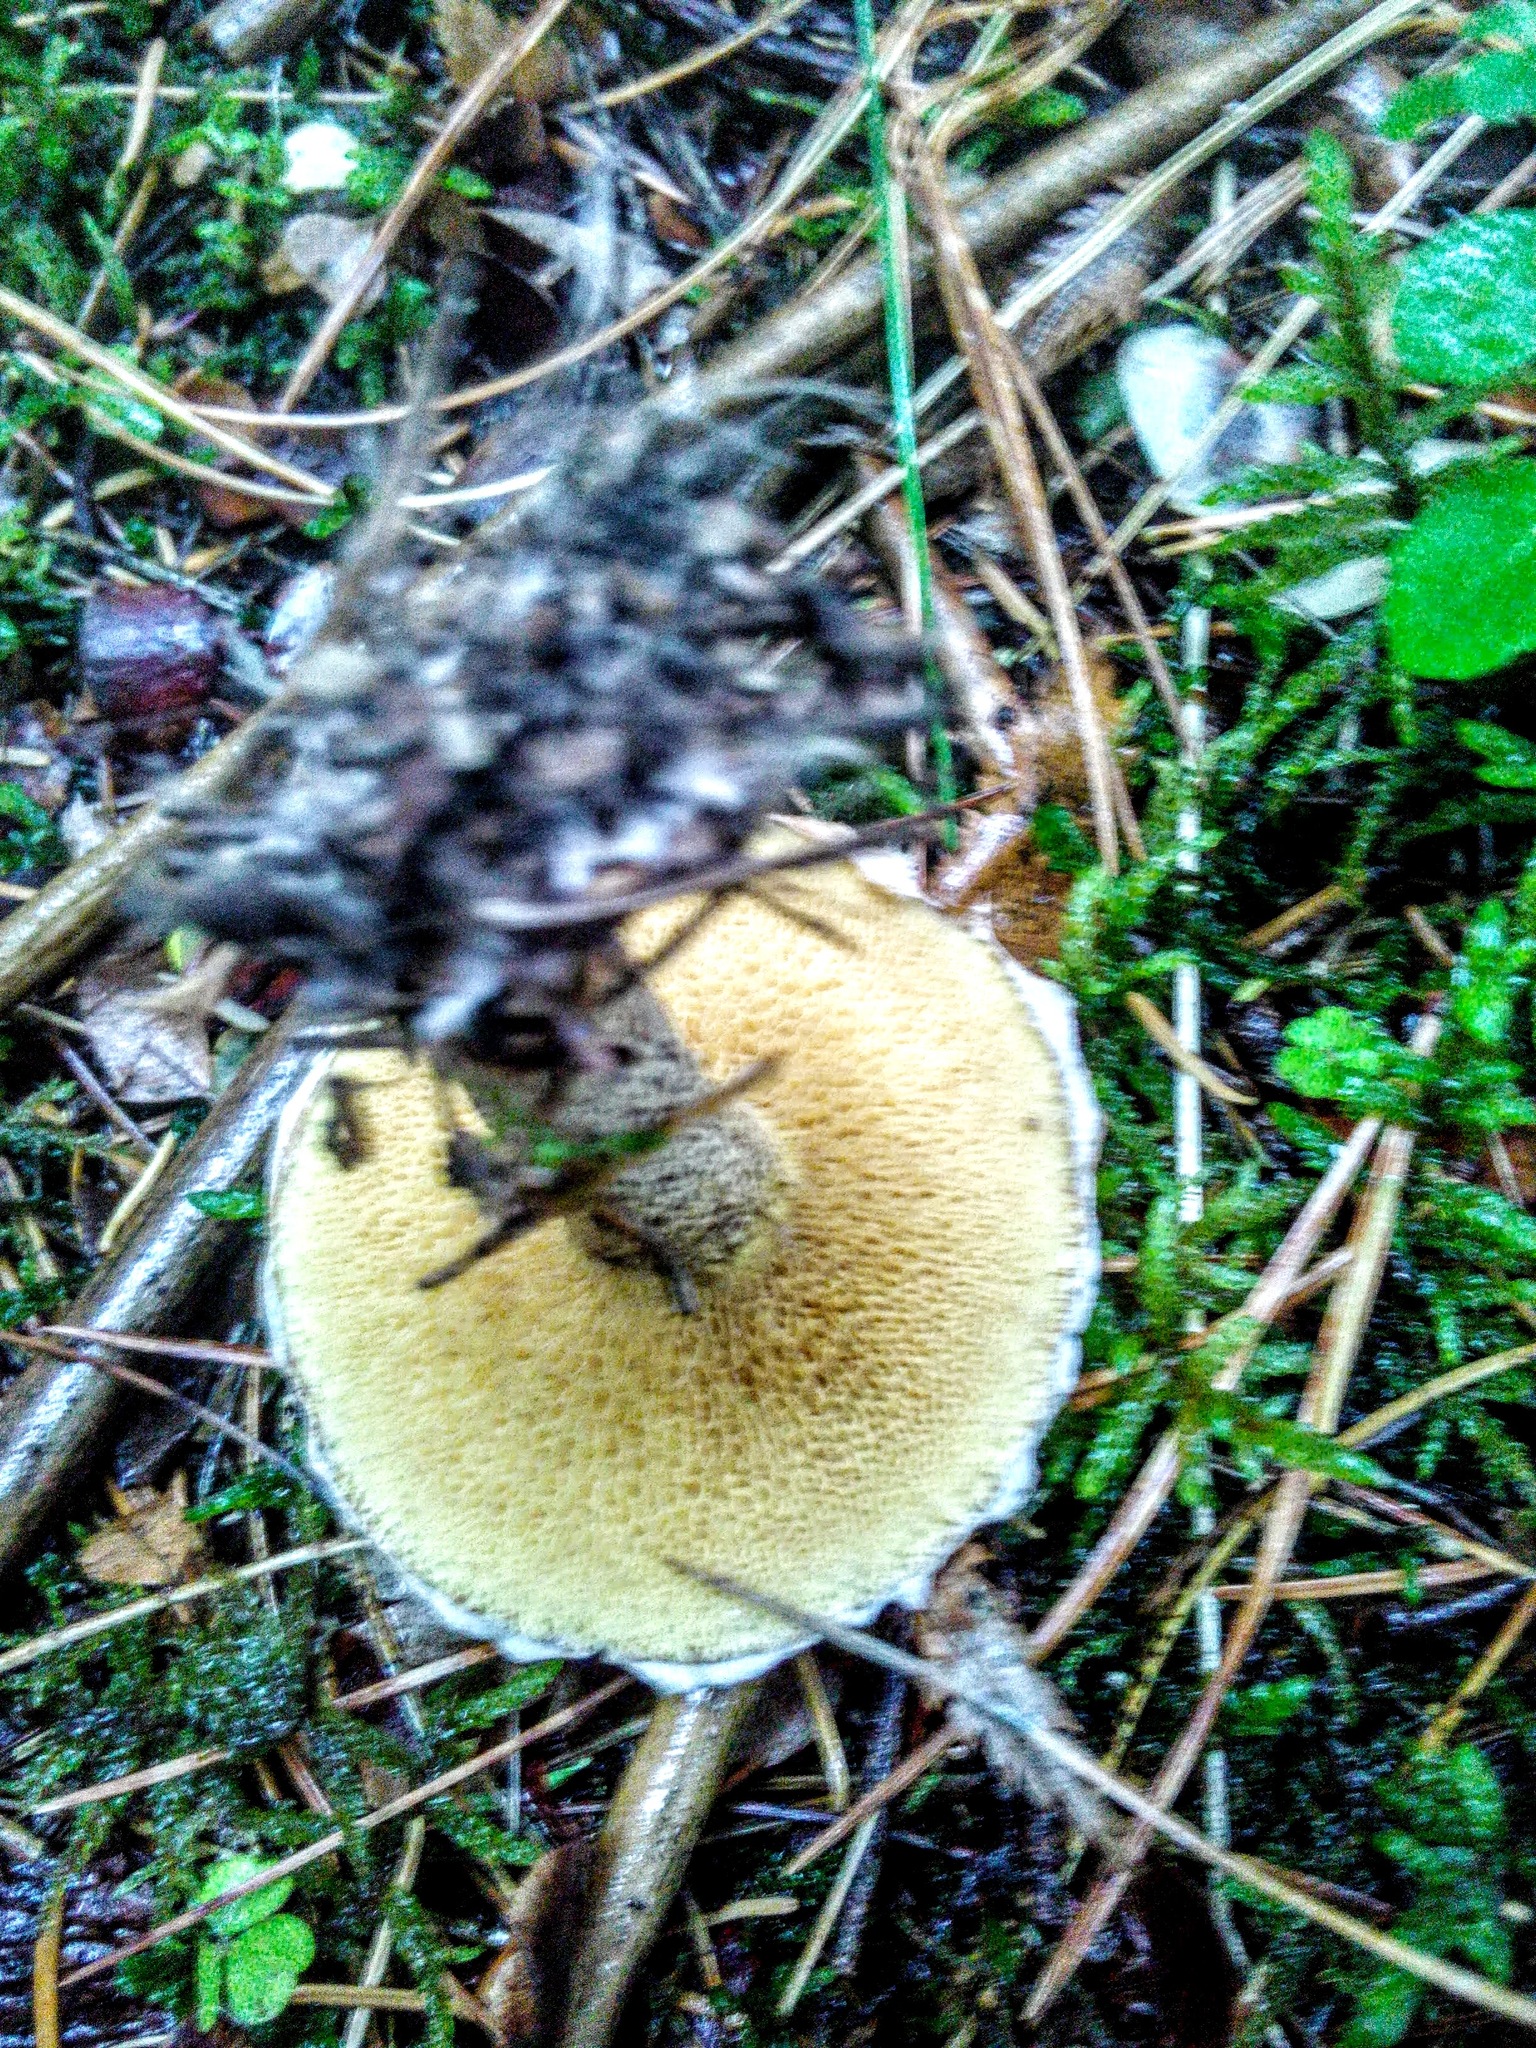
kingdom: Fungi
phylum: Basidiomycota
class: Agaricomycetes
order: Boletales
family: Suillaceae
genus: Suillus
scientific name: Suillus acidus
